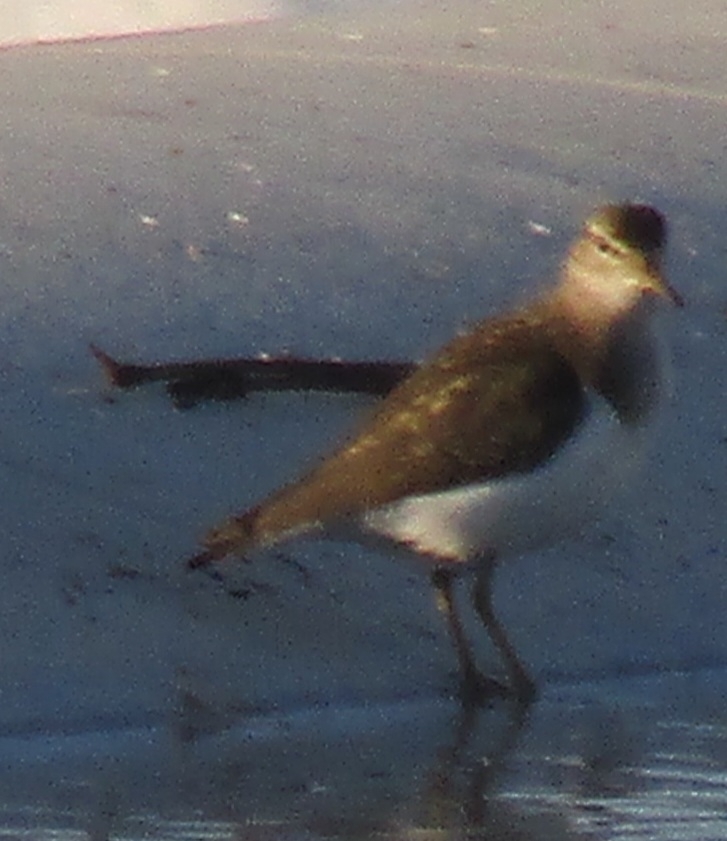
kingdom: Animalia
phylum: Chordata
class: Aves
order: Charadriiformes
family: Scolopacidae
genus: Actitis
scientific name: Actitis macularius
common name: Spotted sandpiper
